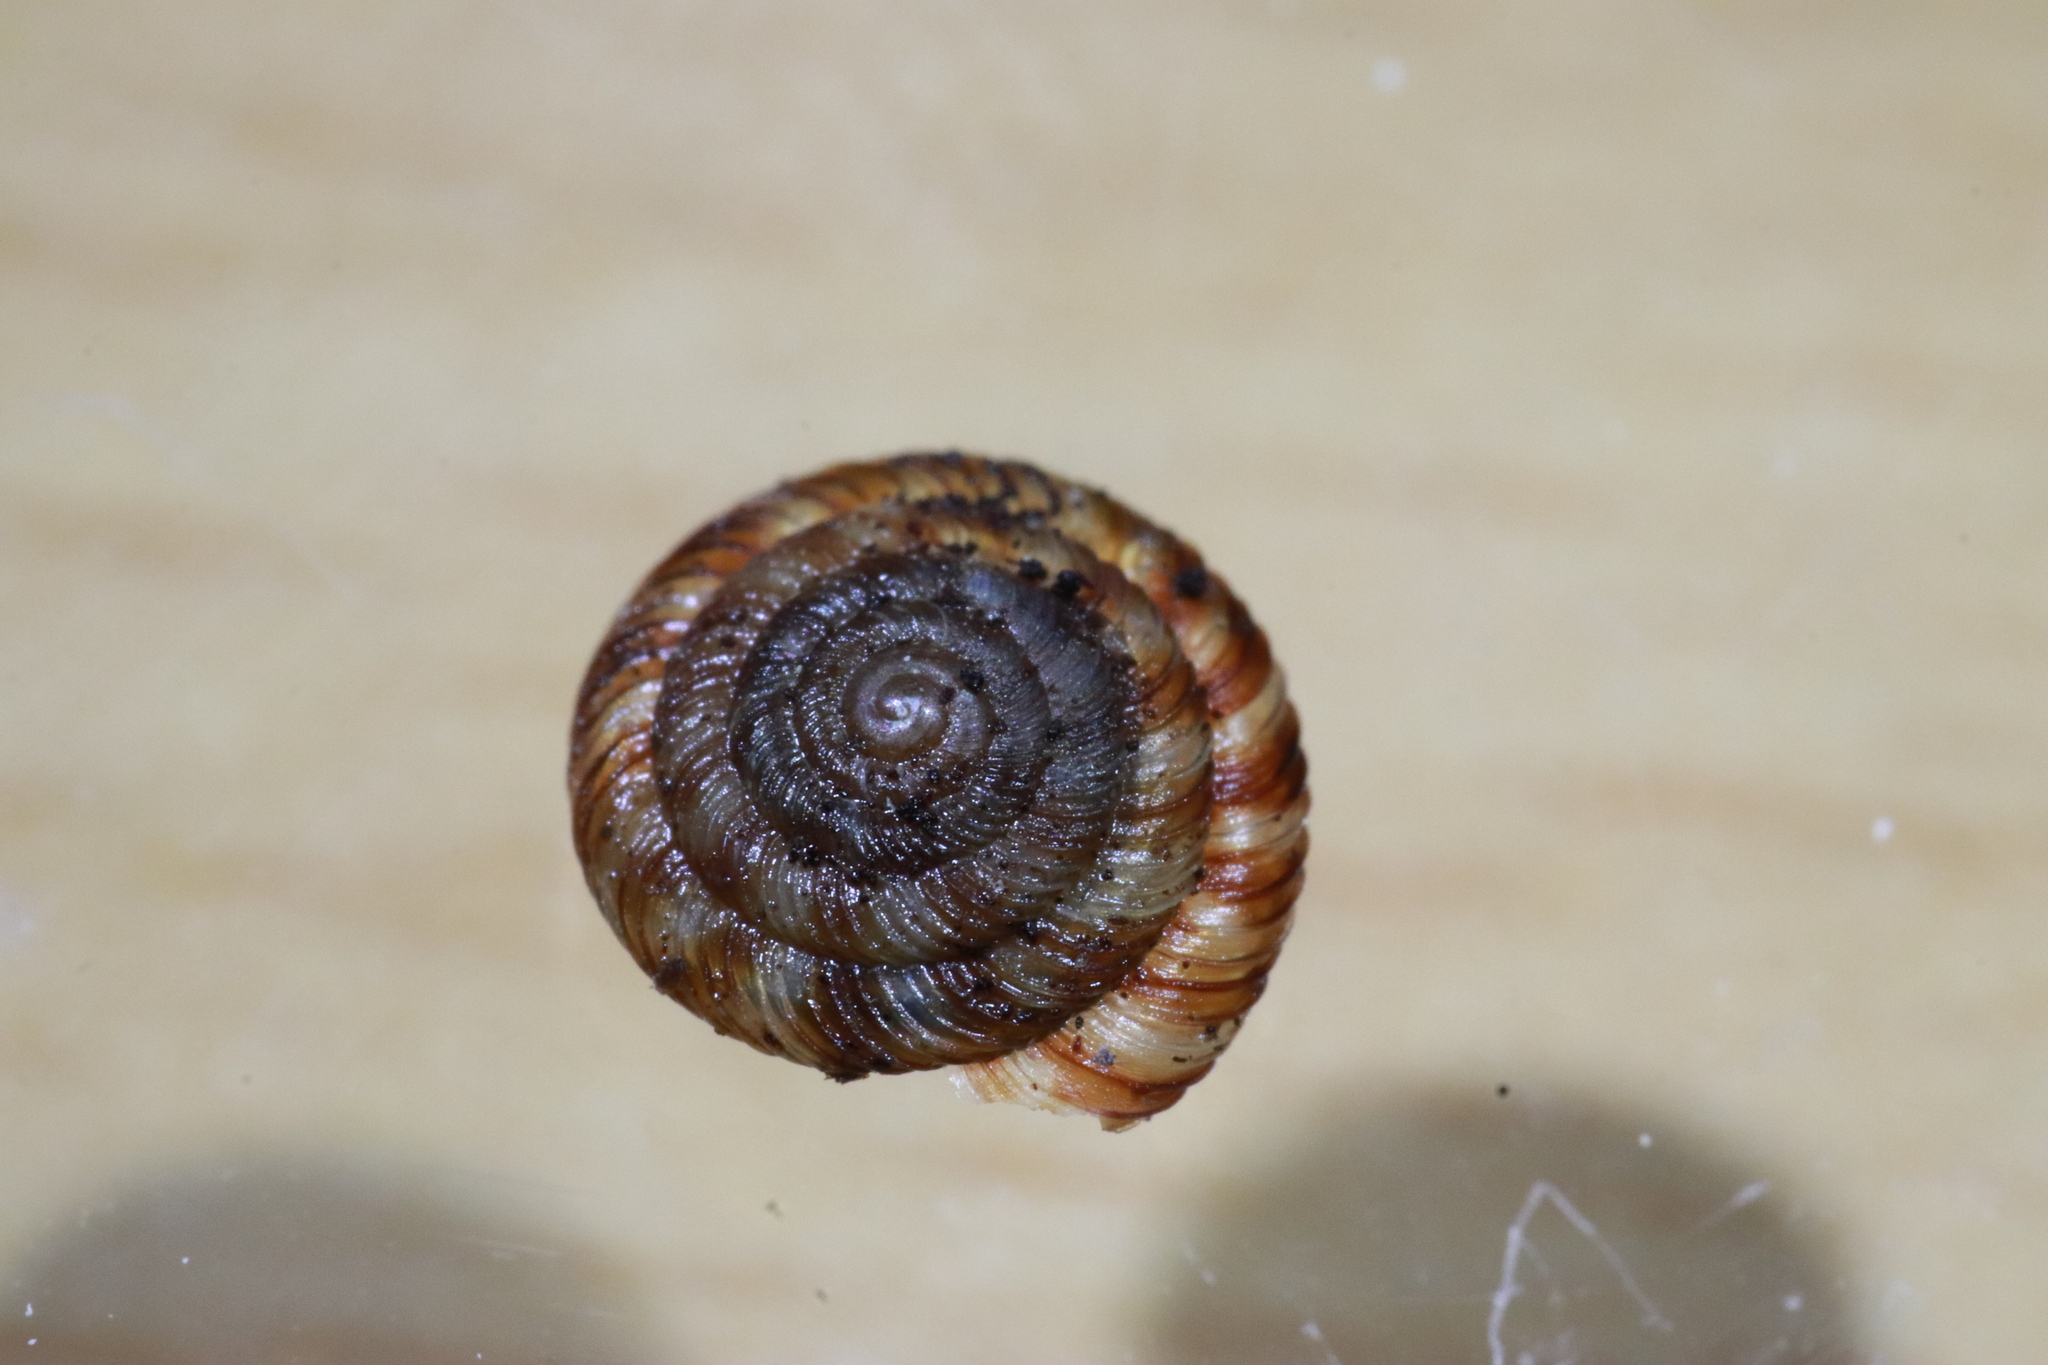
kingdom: Animalia
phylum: Mollusca
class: Gastropoda
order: Stylommatophora
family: Discidae
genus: Discus
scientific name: Discus rotundatus
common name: Rounded snail
